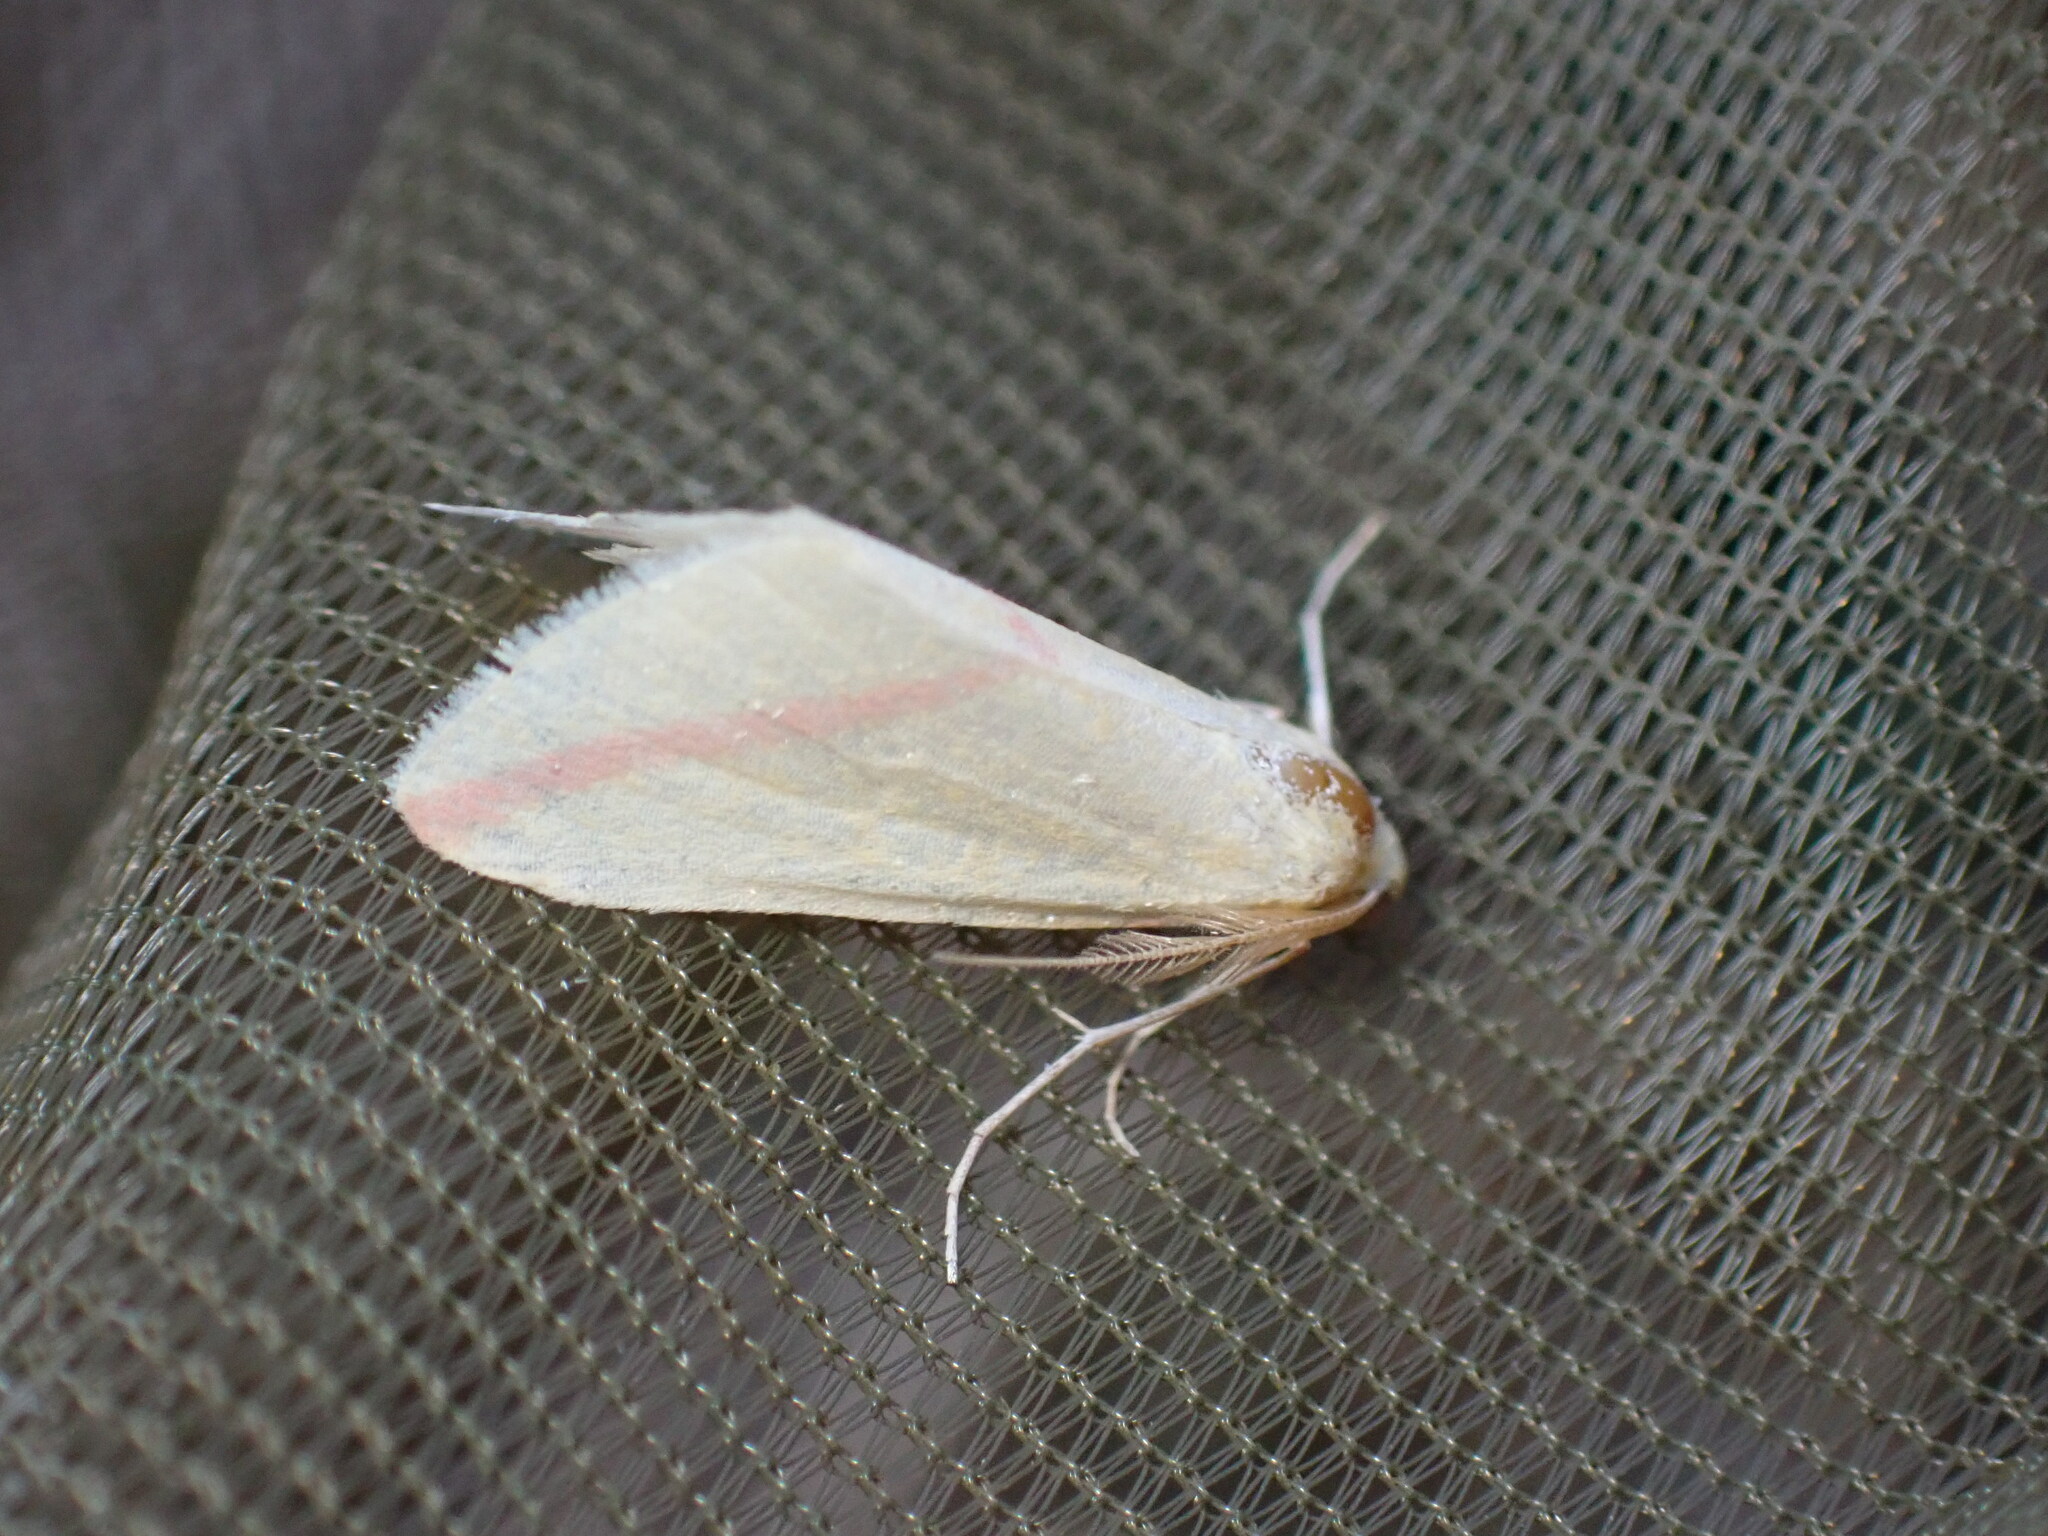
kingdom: Animalia
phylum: Arthropoda
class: Insecta
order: Lepidoptera
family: Geometridae
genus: Rhodometra
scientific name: Rhodometra sacraria
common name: Vestal
